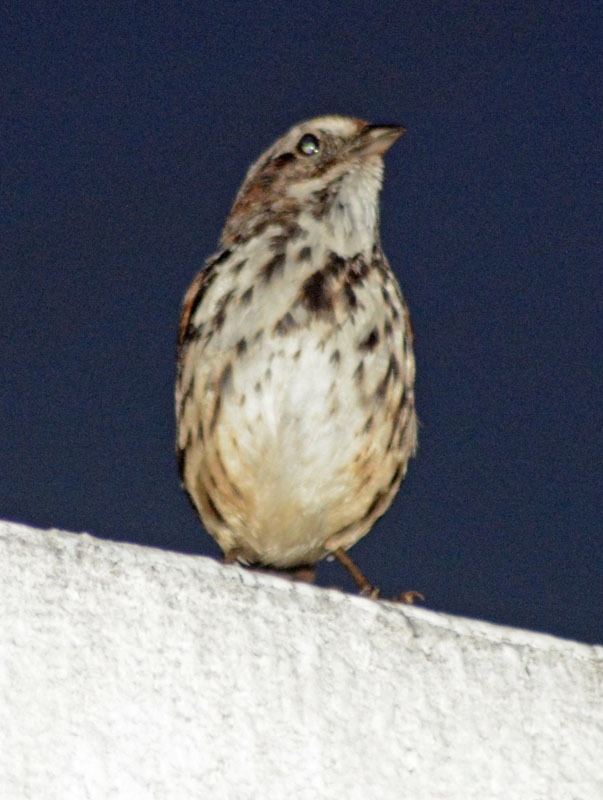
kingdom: Animalia
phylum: Chordata
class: Aves
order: Passeriformes
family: Passerellidae
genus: Melospiza
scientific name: Melospiza melodia
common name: Song sparrow
